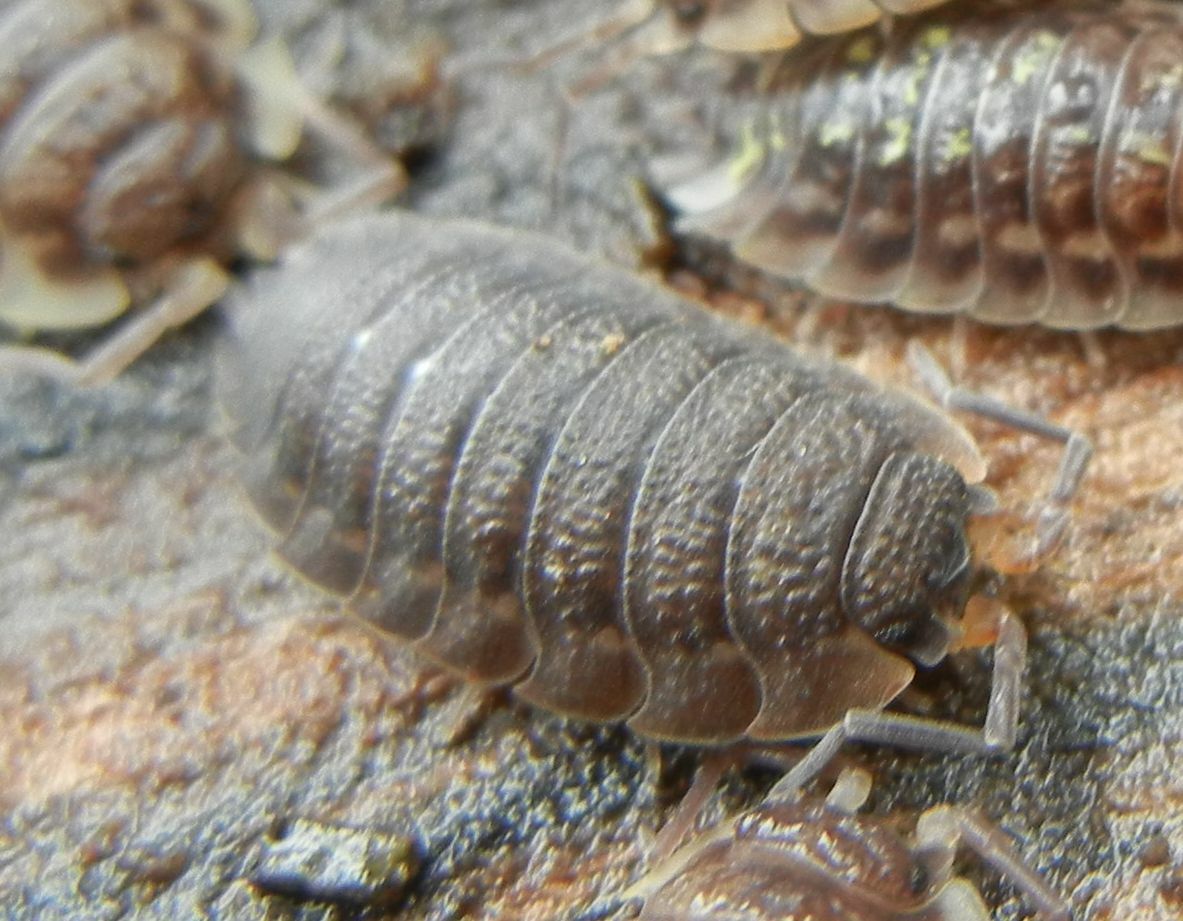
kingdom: Animalia
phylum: Arthropoda
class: Malacostraca
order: Isopoda
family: Porcellionidae
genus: Porcellio
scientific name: Porcellio scaber
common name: Common rough woodlouse
